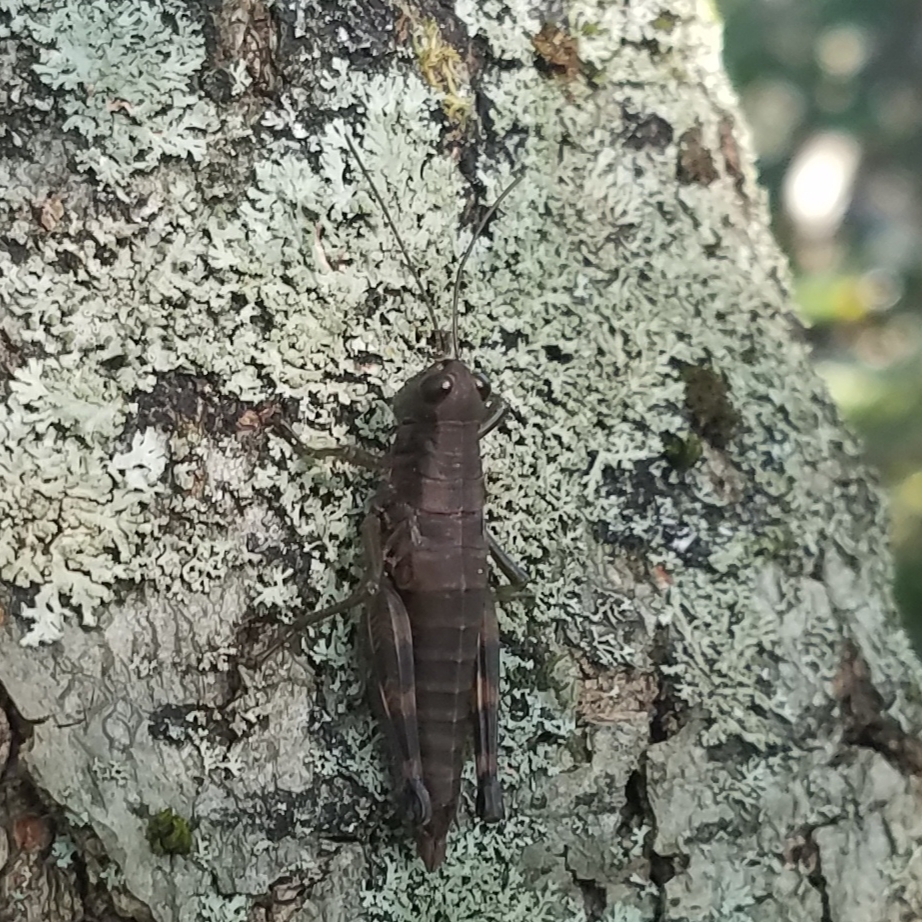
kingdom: Animalia
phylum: Arthropoda
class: Insecta
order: Orthoptera
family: Acrididae
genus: Booneacris
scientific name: Booneacris glacialis
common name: Wingless mountain grasshopper
